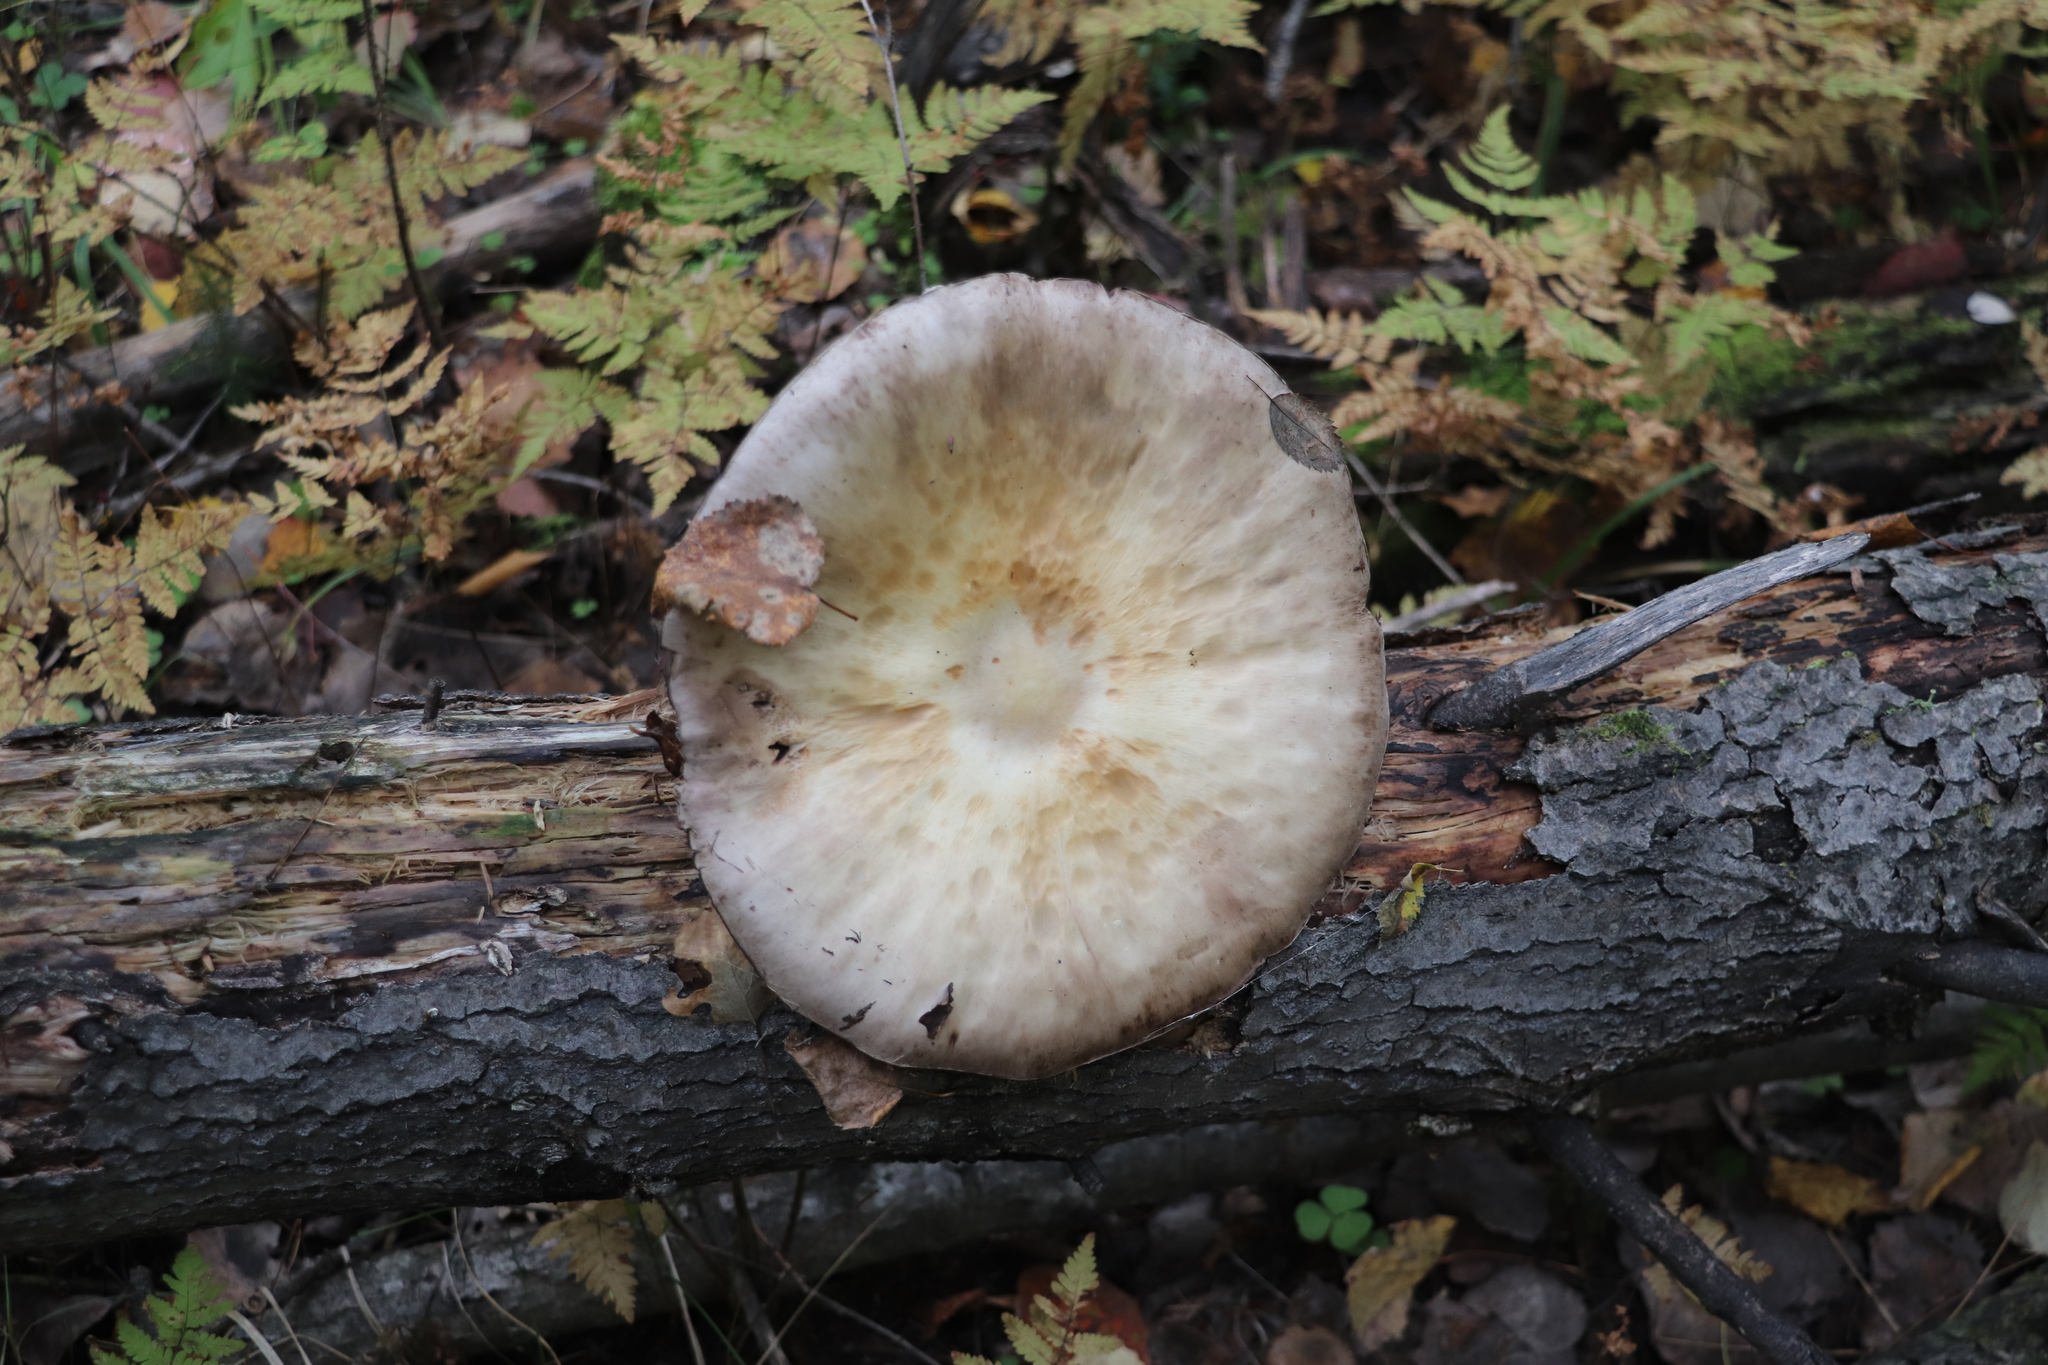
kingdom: Fungi
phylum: Basidiomycota
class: Agaricomycetes
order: Agaricales
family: Agaricaceae
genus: Agaricus
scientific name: Agaricus sylvicola
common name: Wood mushroom
